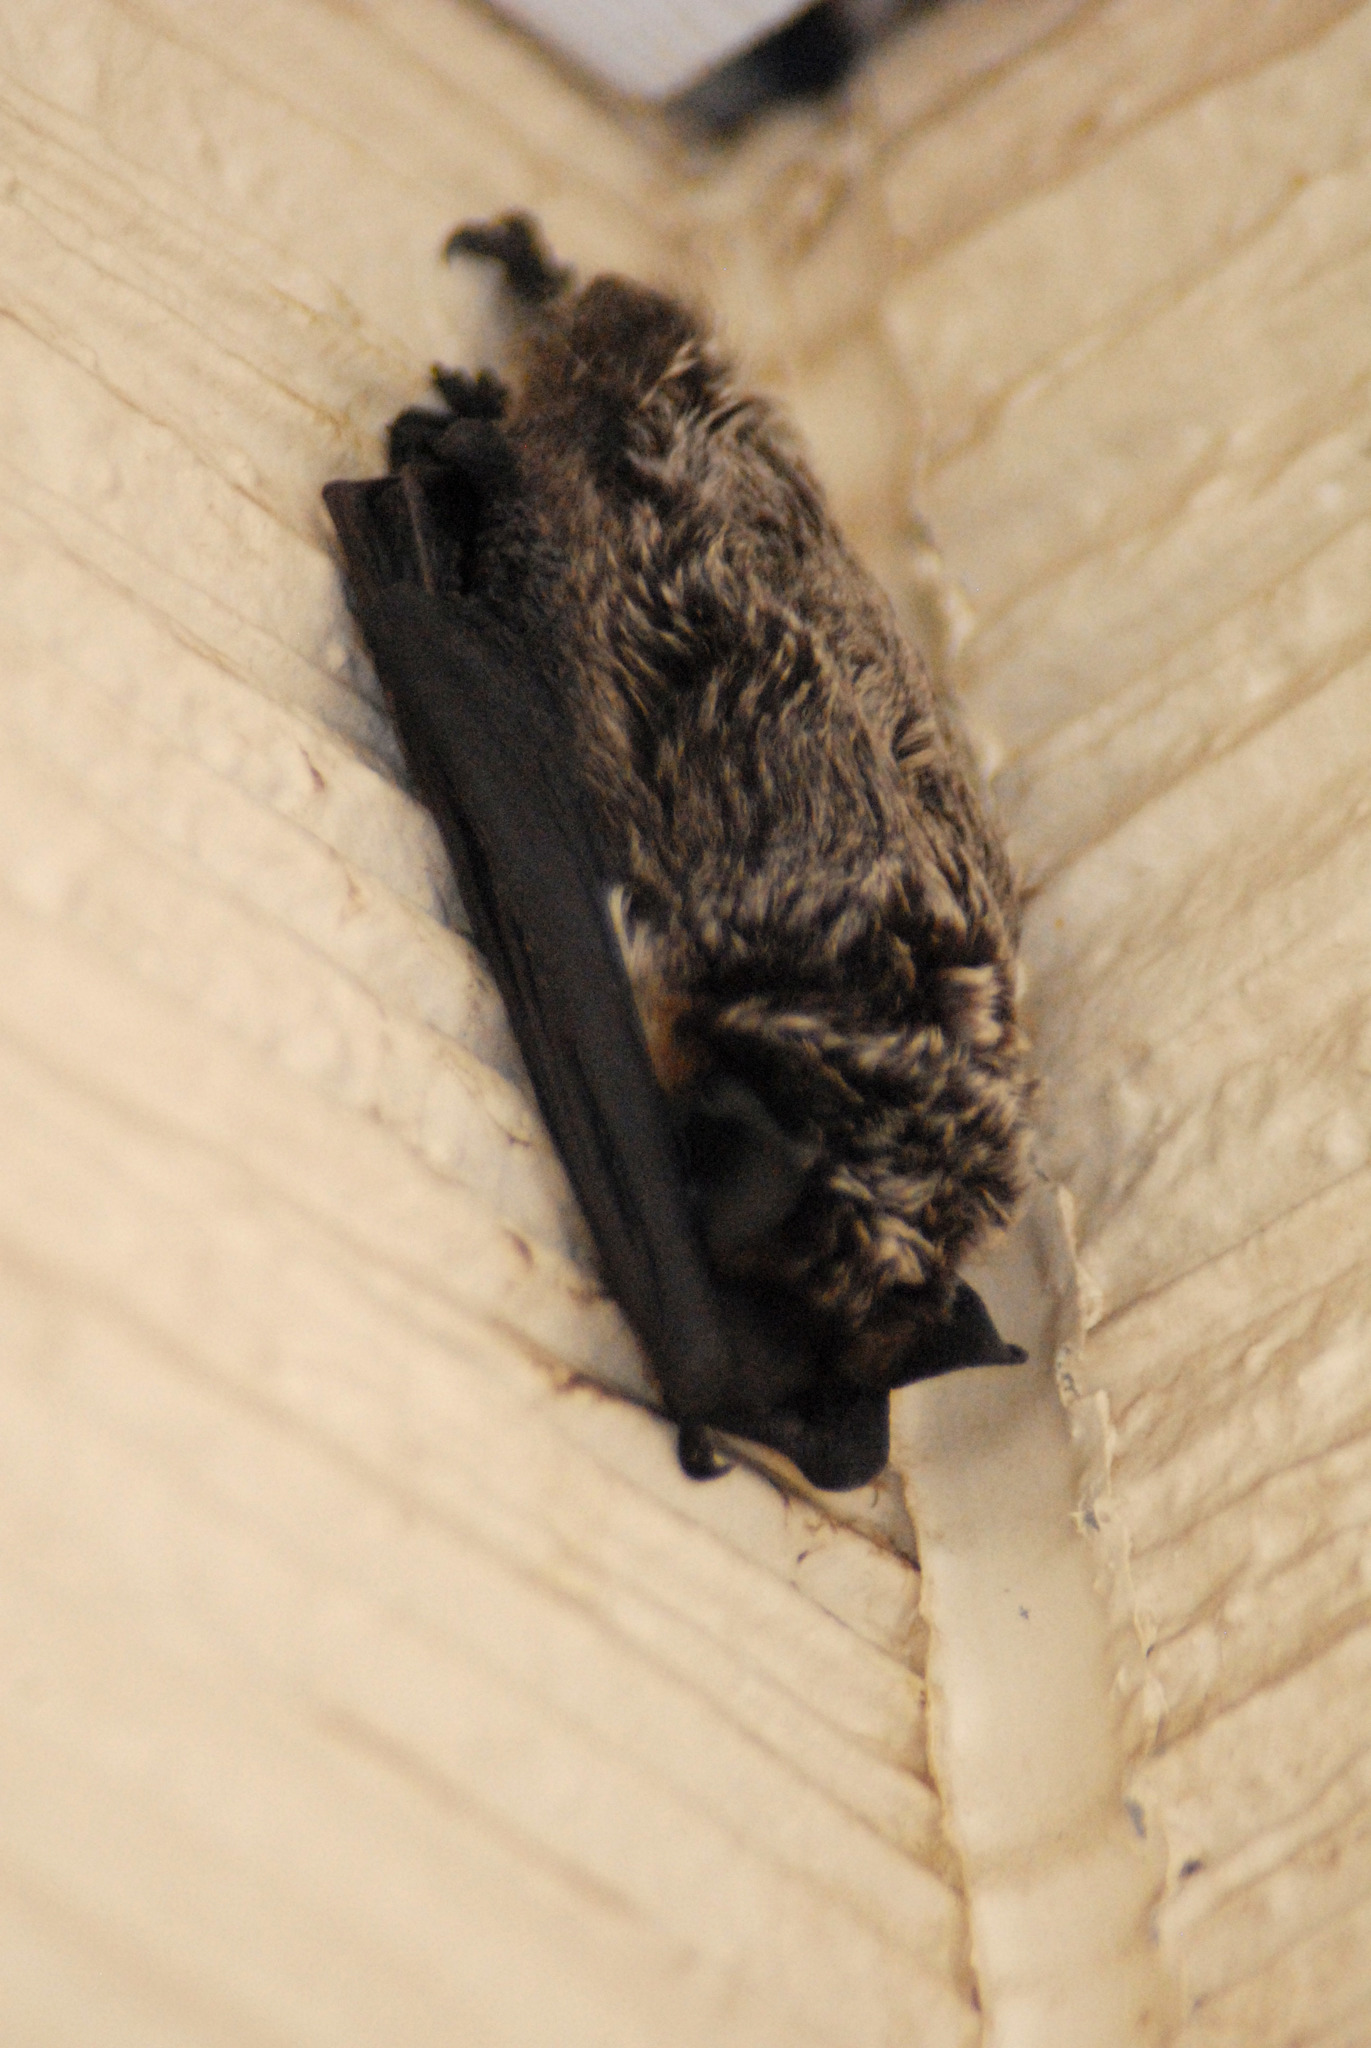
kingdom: Animalia
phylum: Chordata
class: Mammalia
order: Chiroptera
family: Vespertilionidae
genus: Vespertilio
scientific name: Vespertilio murinus
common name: Particolored bat
